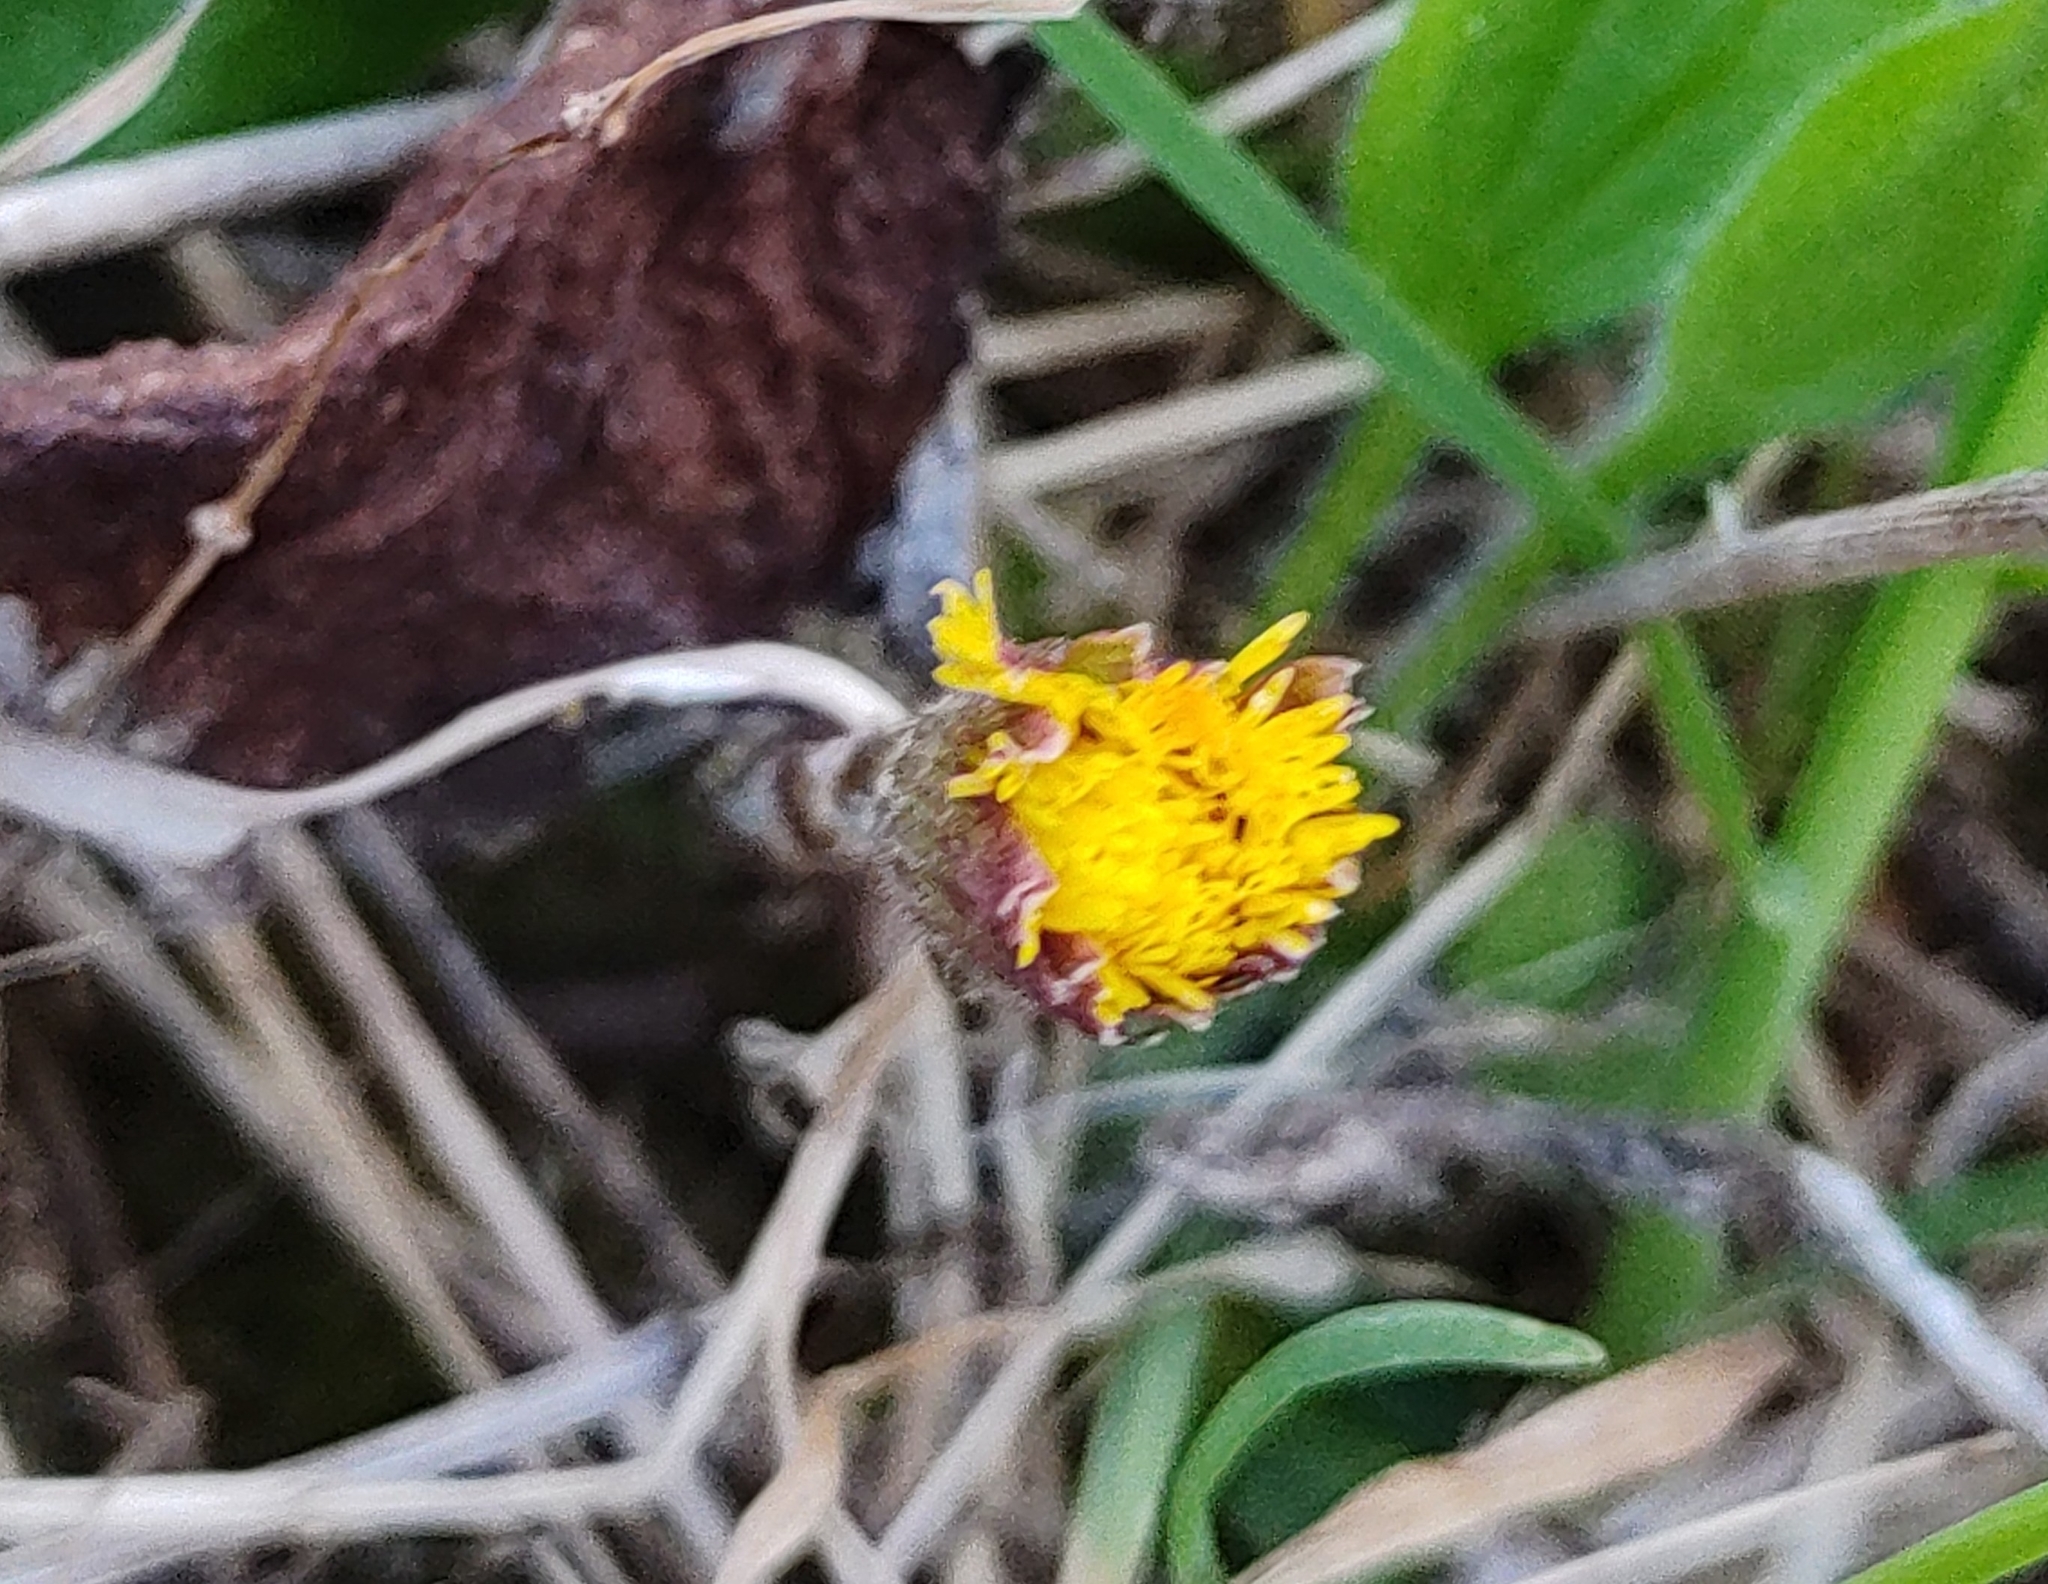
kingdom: Plantae
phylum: Tracheophyta
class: Magnoliopsida
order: Asterales
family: Asteraceae
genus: Tussilago
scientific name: Tussilago farfara
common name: Coltsfoot
